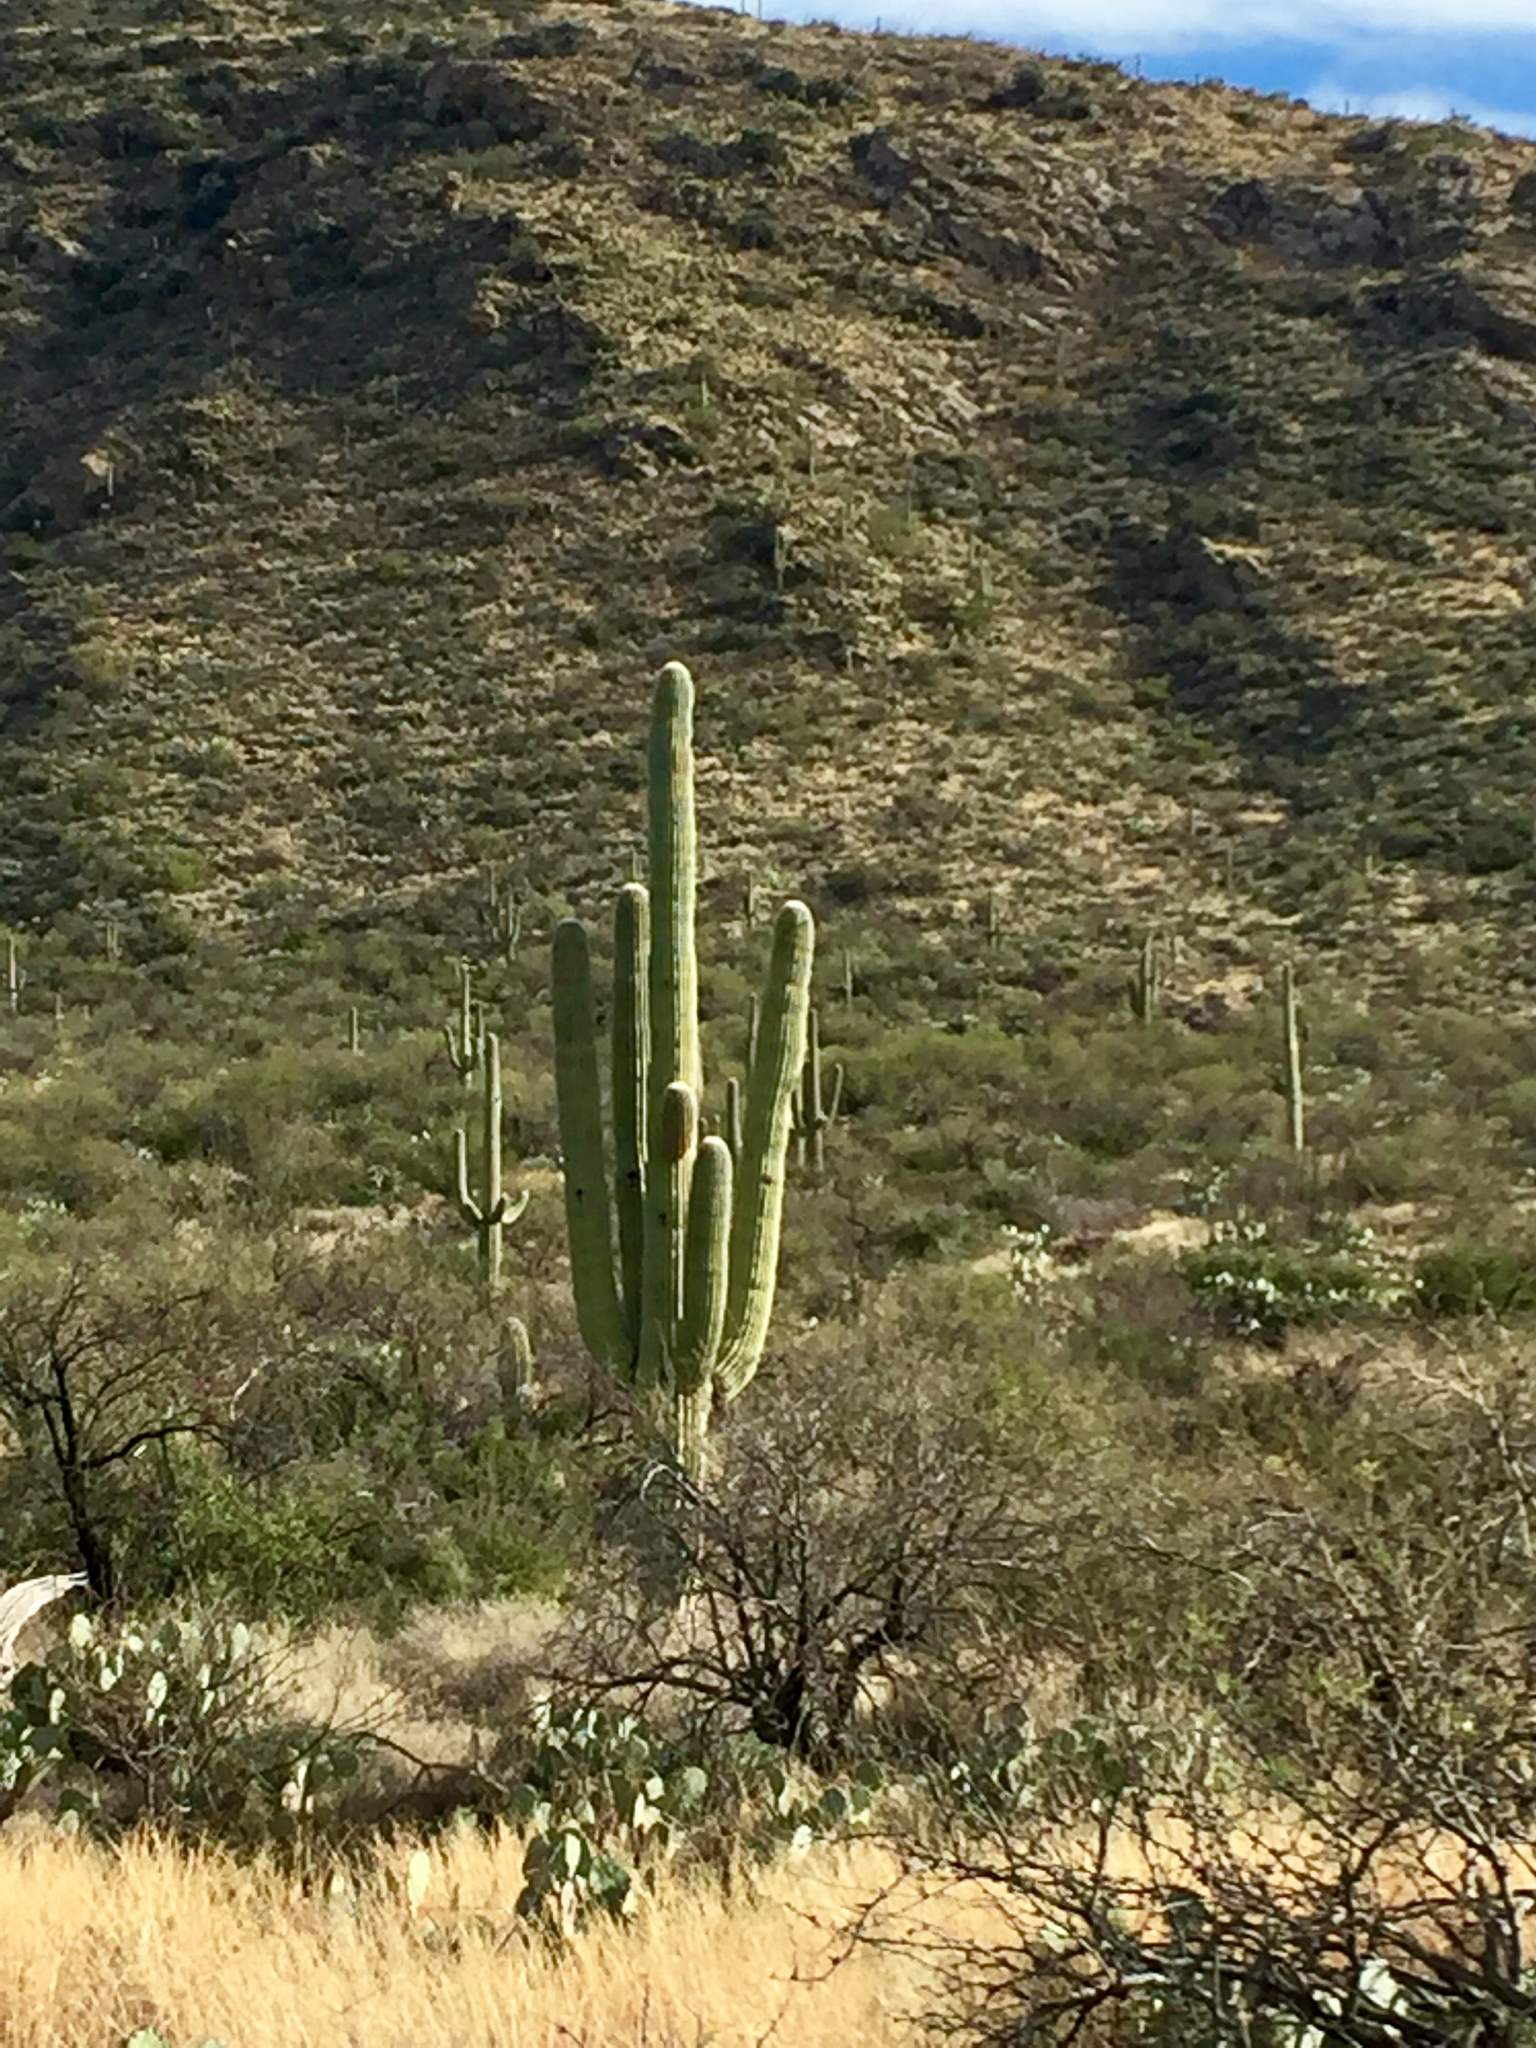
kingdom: Plantae
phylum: Tracheophyta
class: Magnoliopsida
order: Caryophyllales
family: Cactaceae
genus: Carnegiea
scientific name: Carnegiea gigantea
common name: Saguaro
